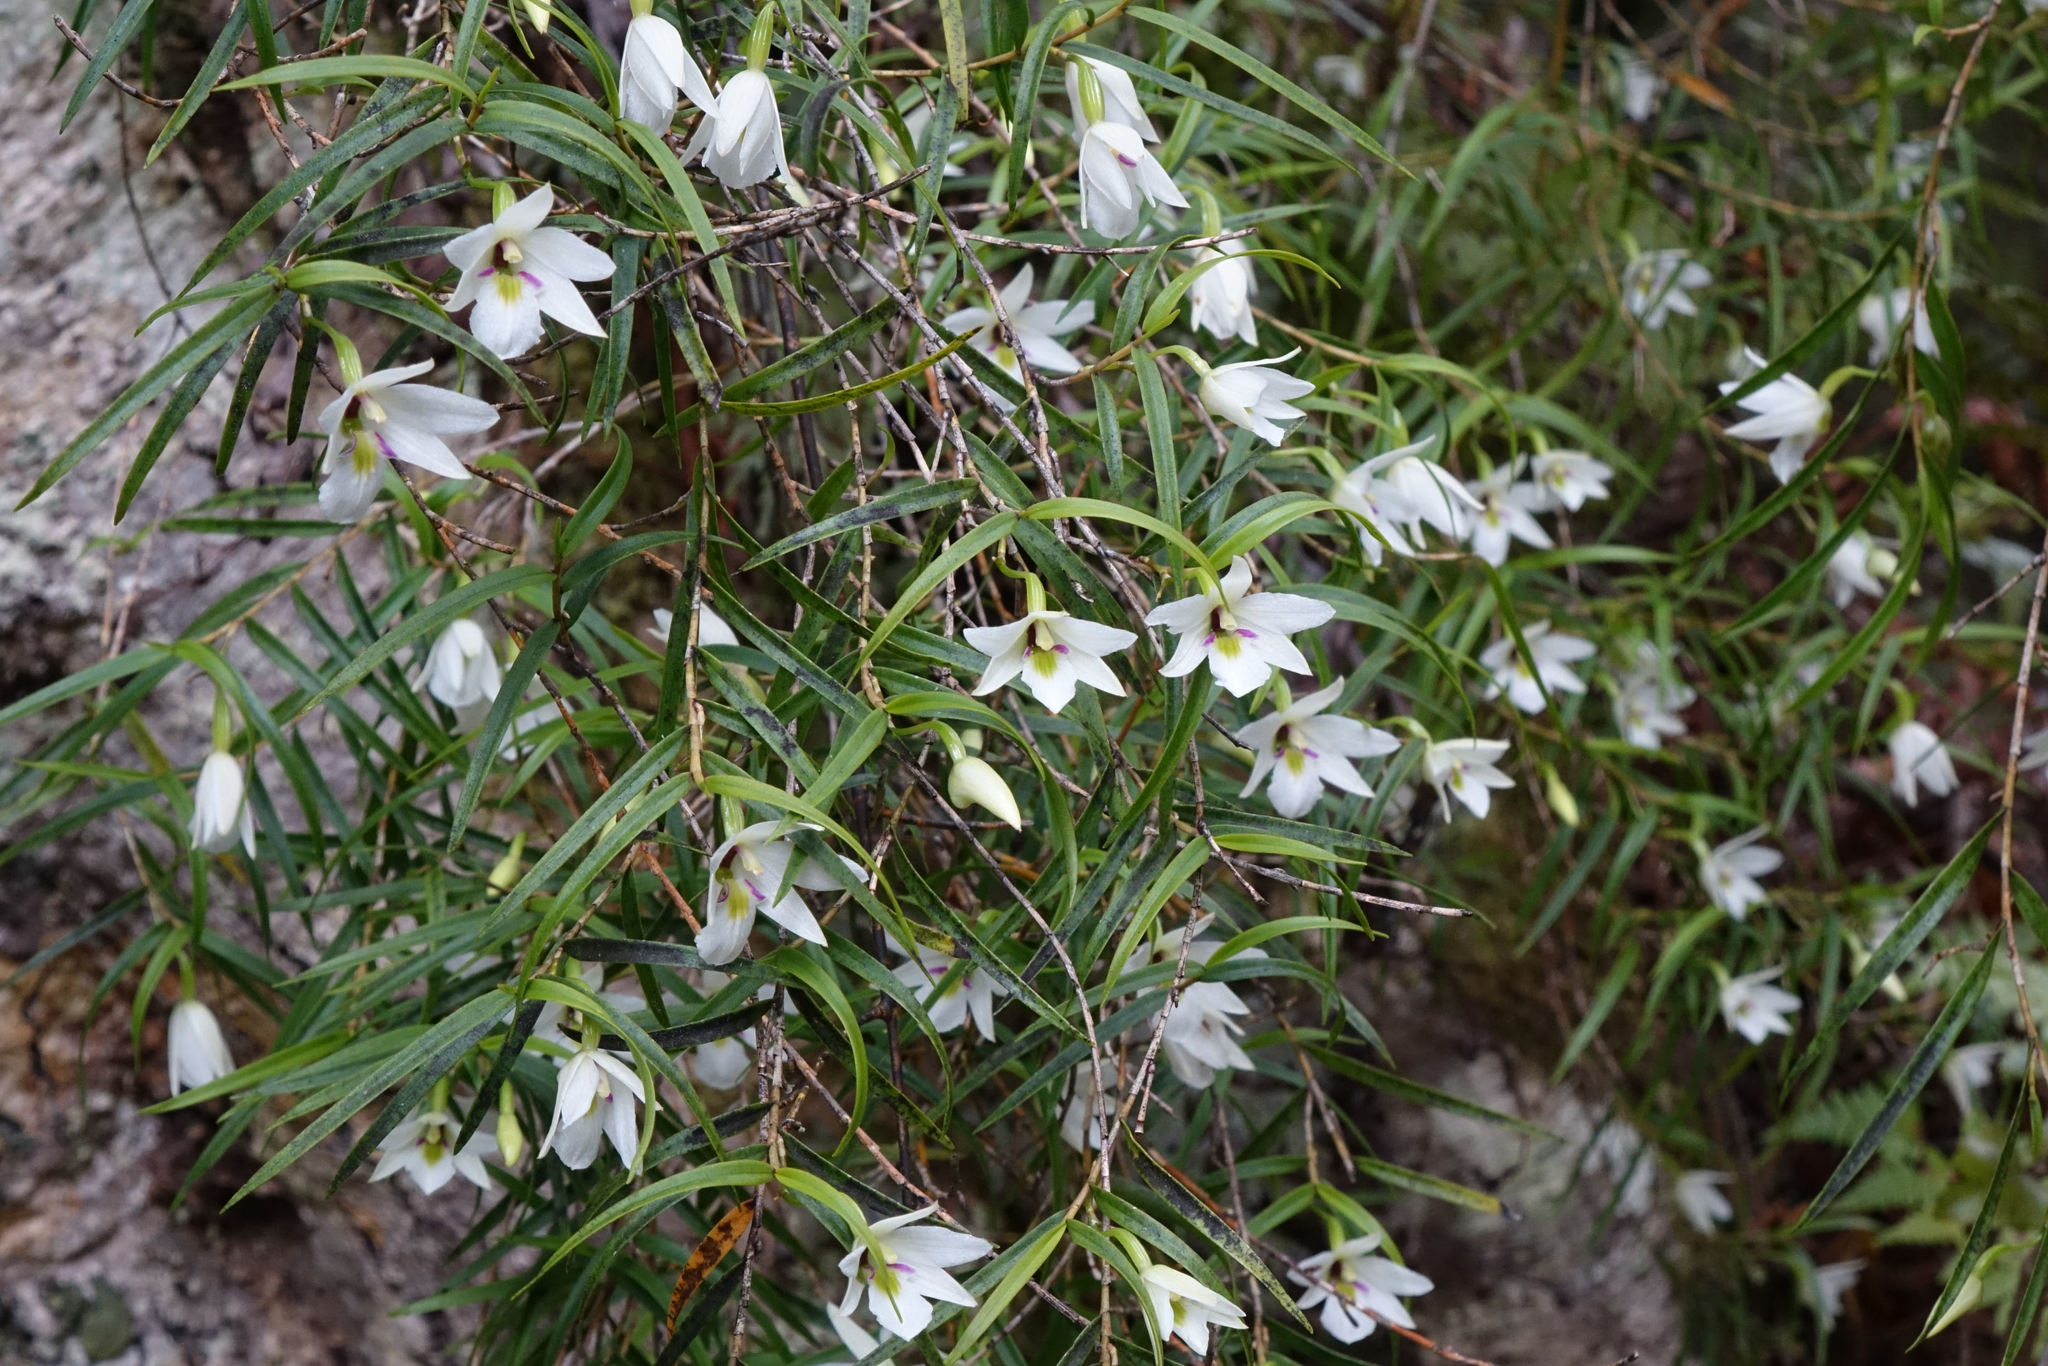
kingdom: Plantae
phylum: Tracheophyta
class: Liliopsida
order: Asparagales
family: Orchidaceae
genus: Dendrobium
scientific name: Dendrobium cunninghamii
